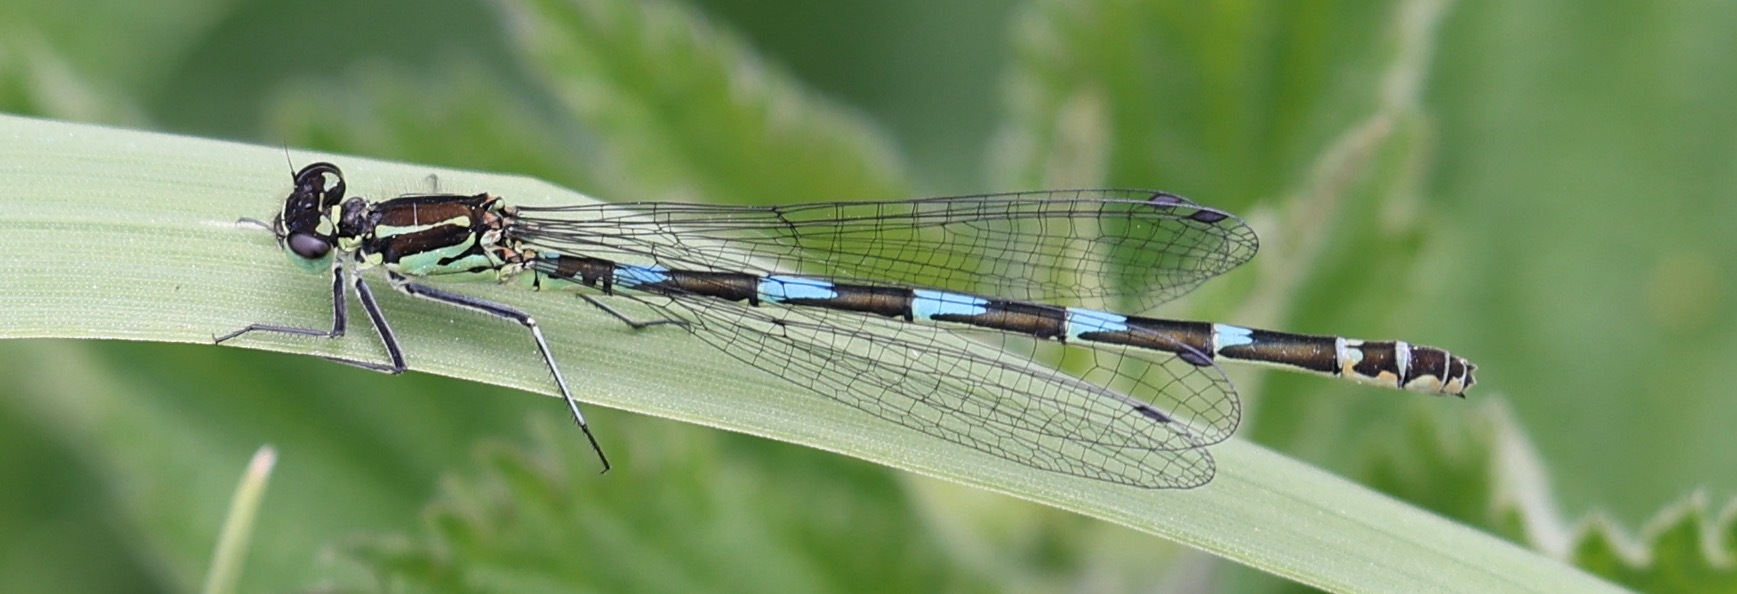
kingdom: Animalia
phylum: Arthropoda
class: Insecta
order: Odonata
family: Coenagrionidae
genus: Coenagrion
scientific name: Coenagrion pulchellum
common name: Variable bluet
